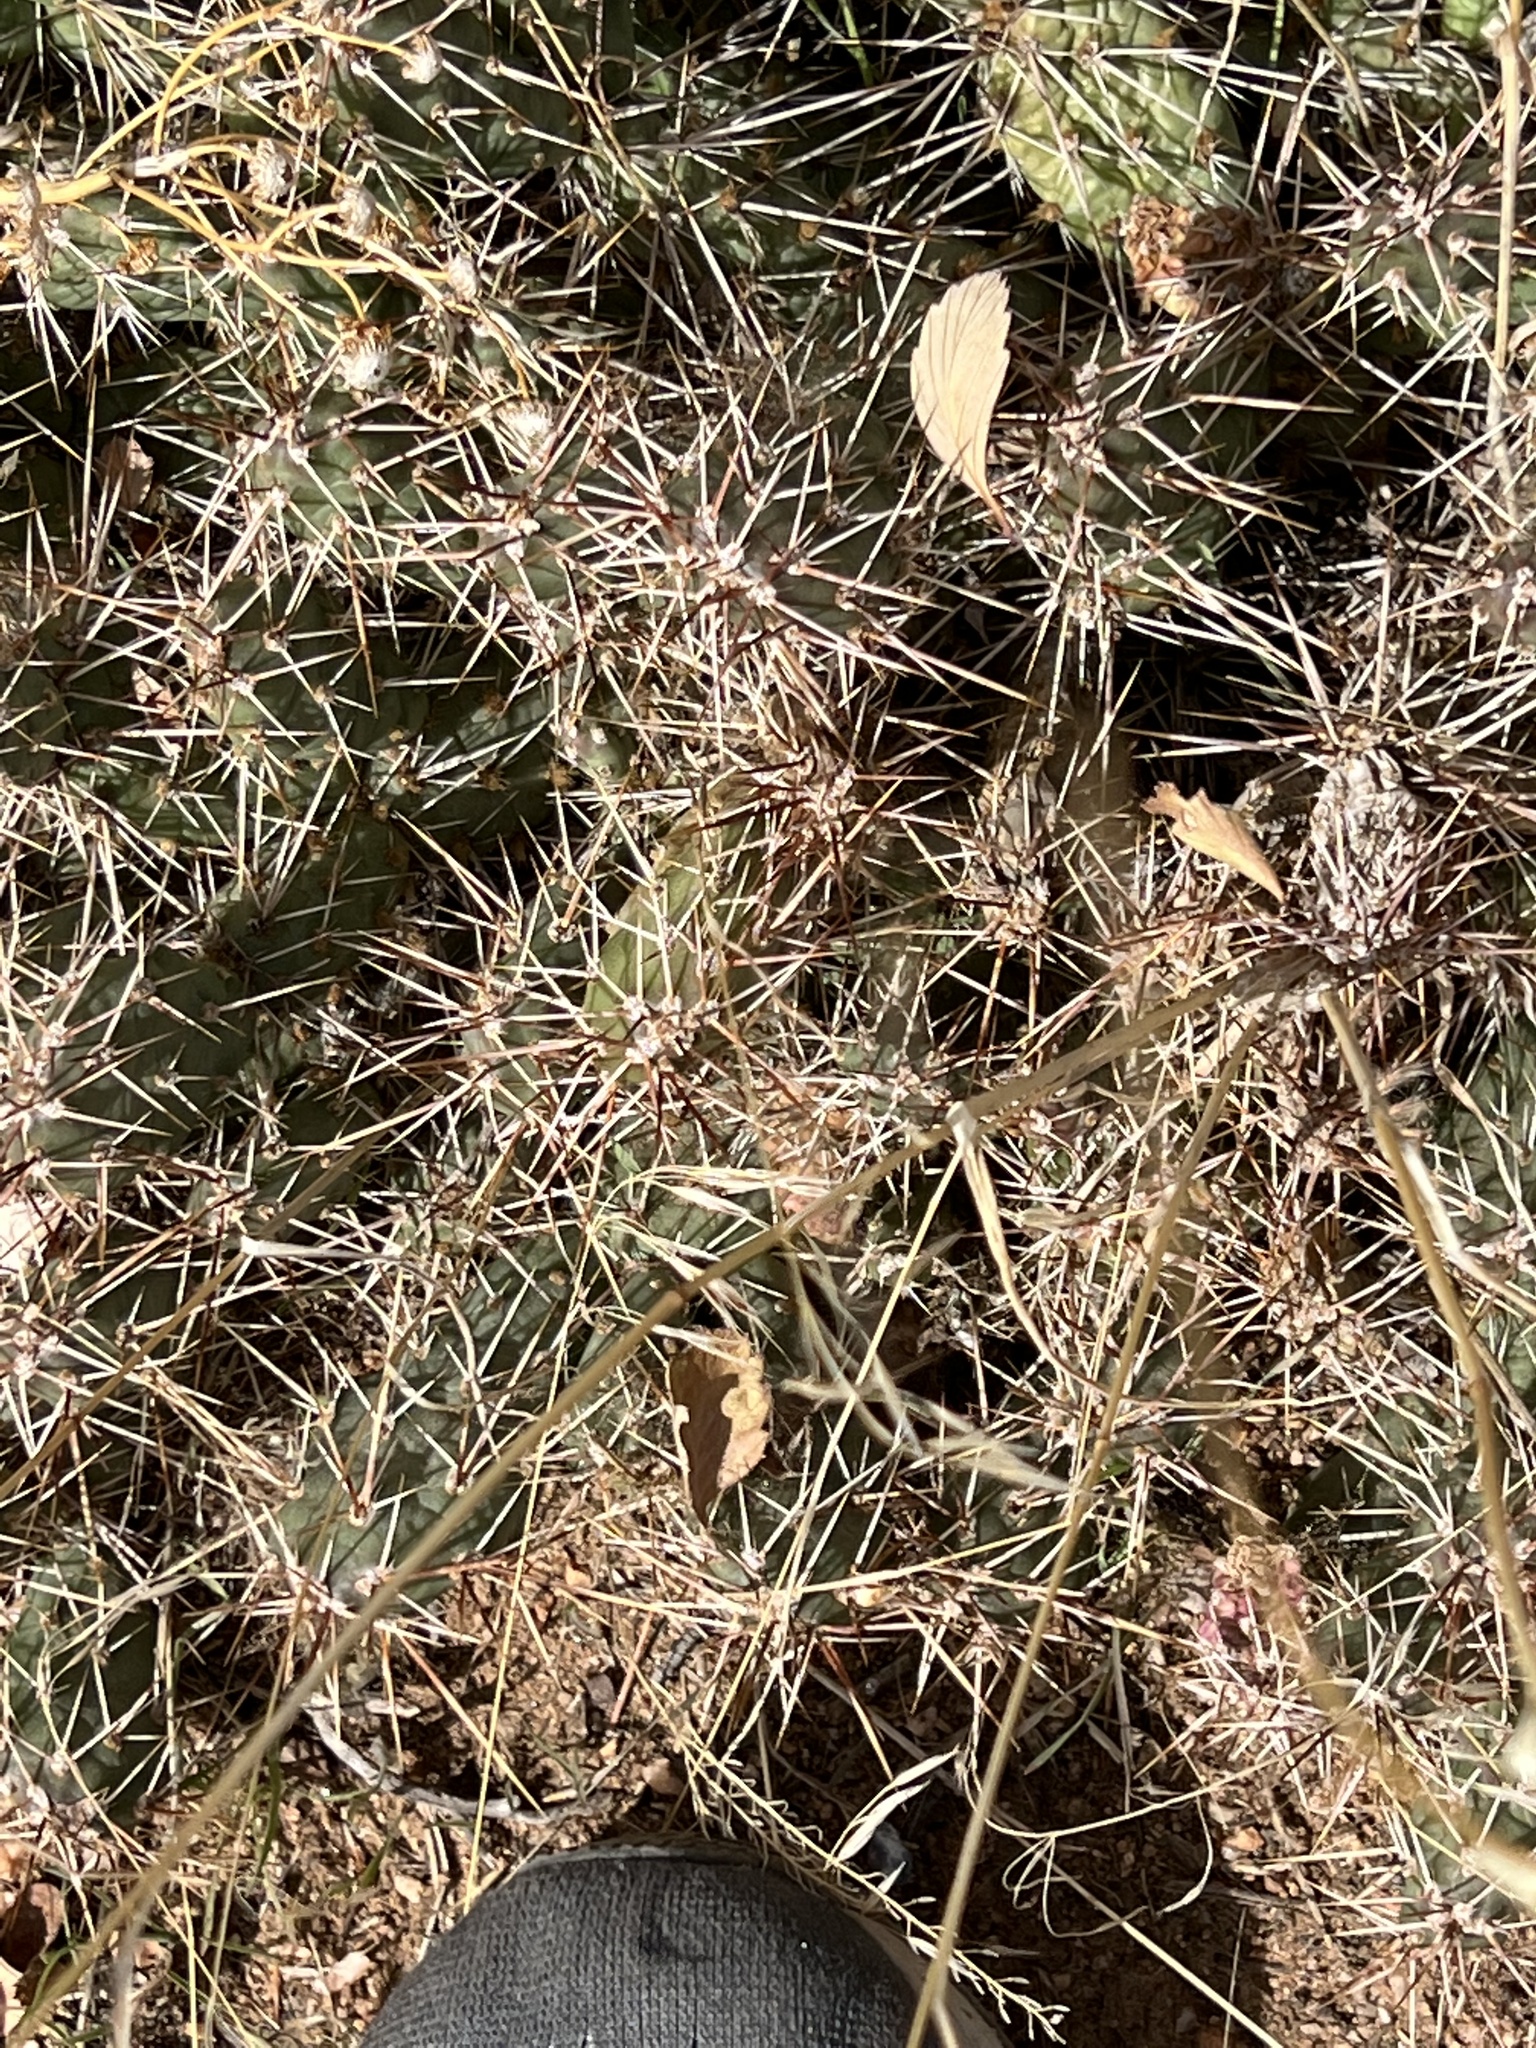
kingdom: Plantae
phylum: Tracheophyta
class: Magnoliopsida
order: Caryophyllales
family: Cactaceae
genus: Opuntia
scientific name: Opuntia fragilis
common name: Brittle cactus
